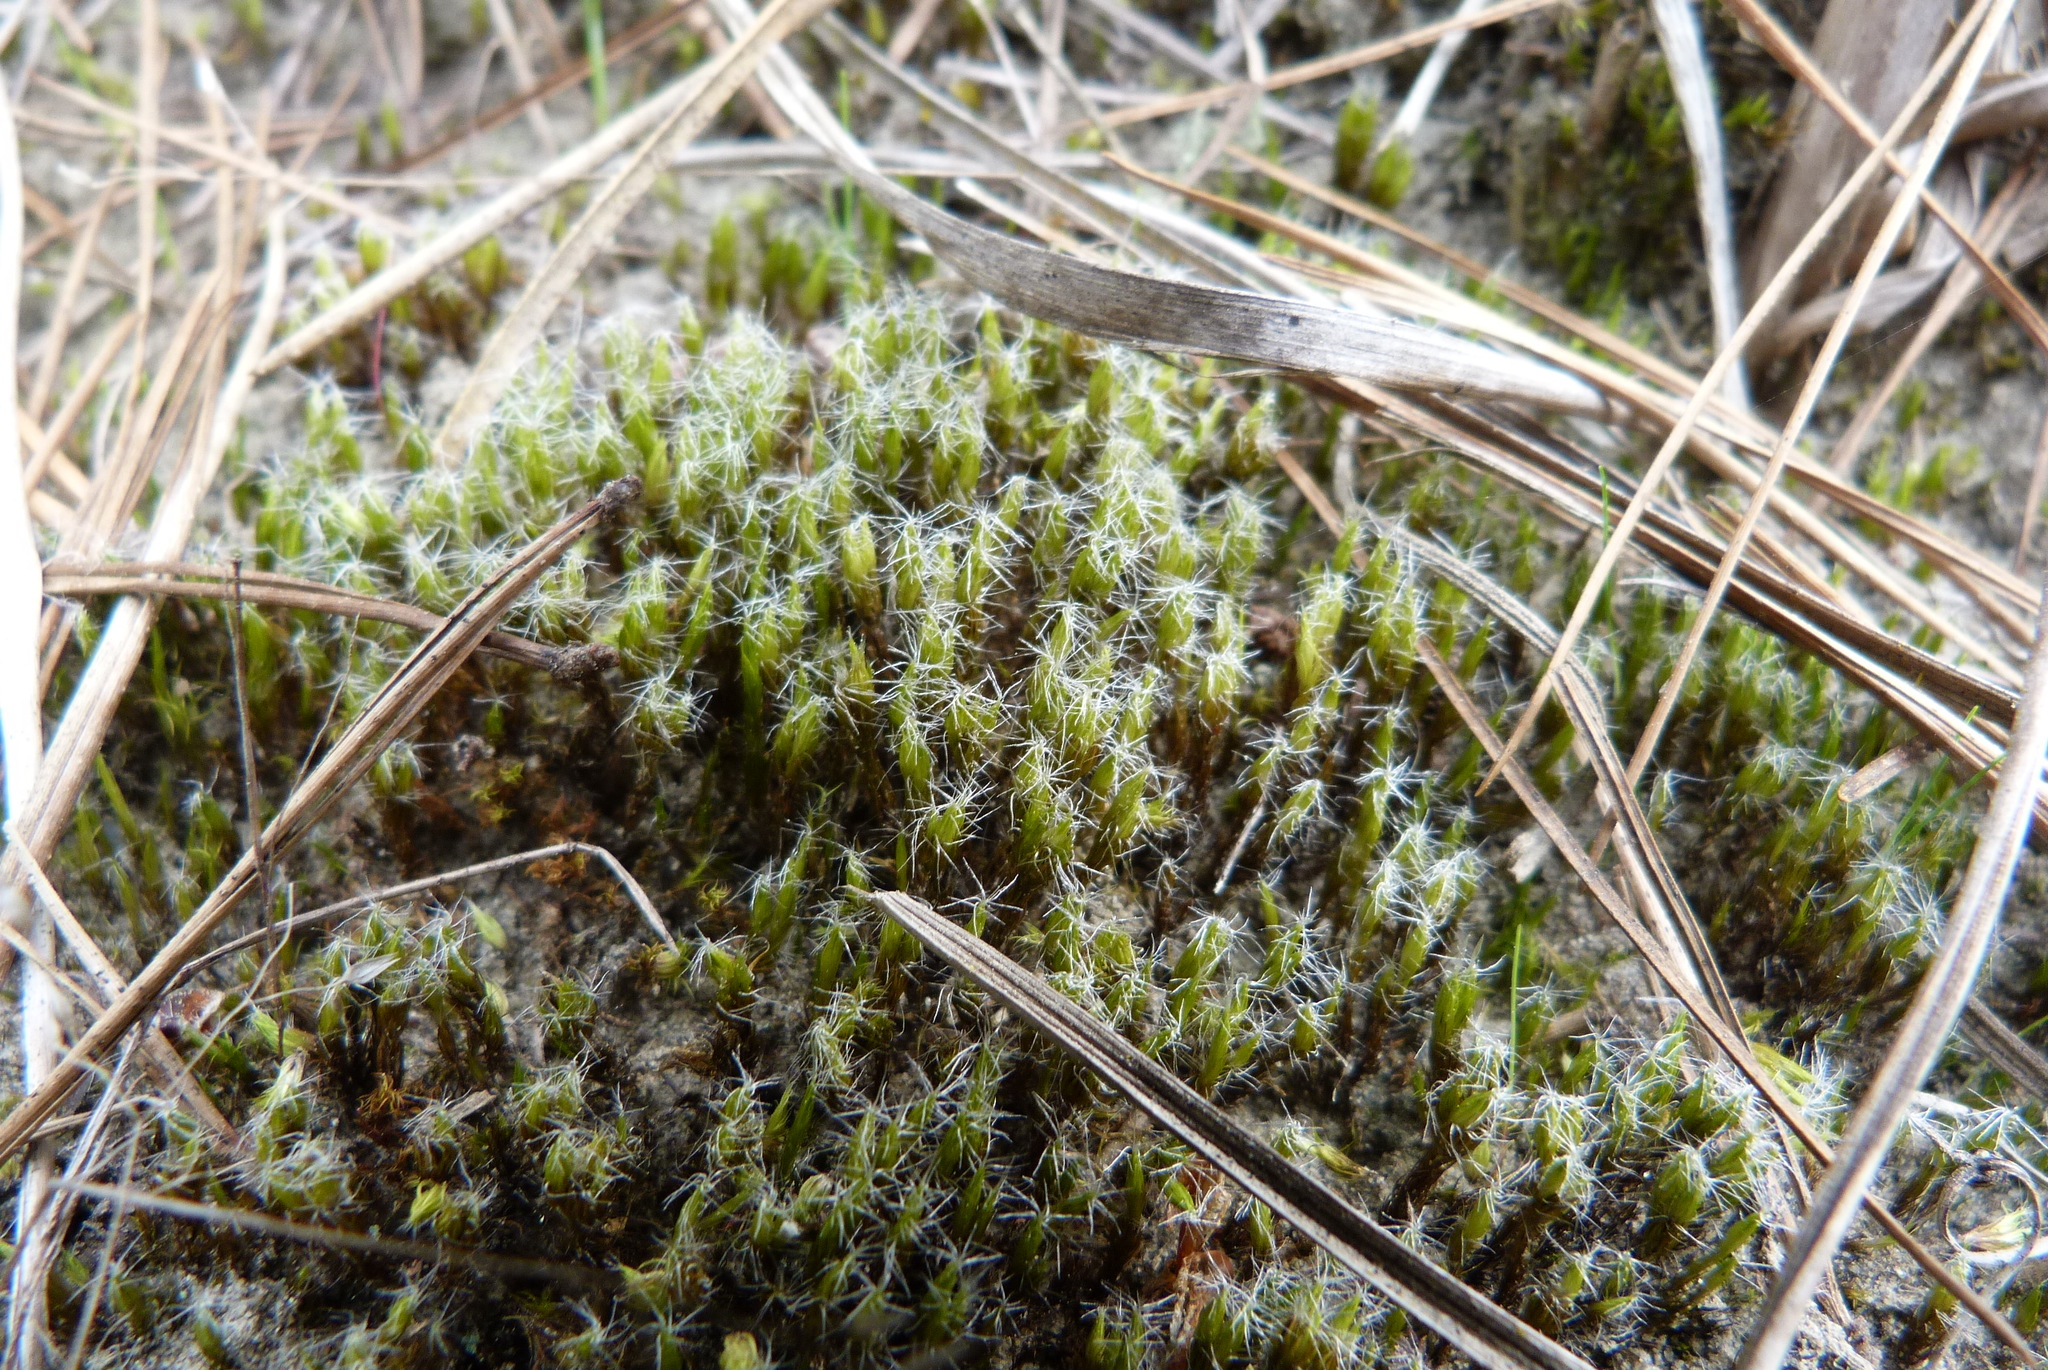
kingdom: Plantae
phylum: Bryophyta
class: Bryopsida
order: Dicranales
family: Leucobryaceae
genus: Campylopus
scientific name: Campylopus introflexus
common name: Heath star moss
